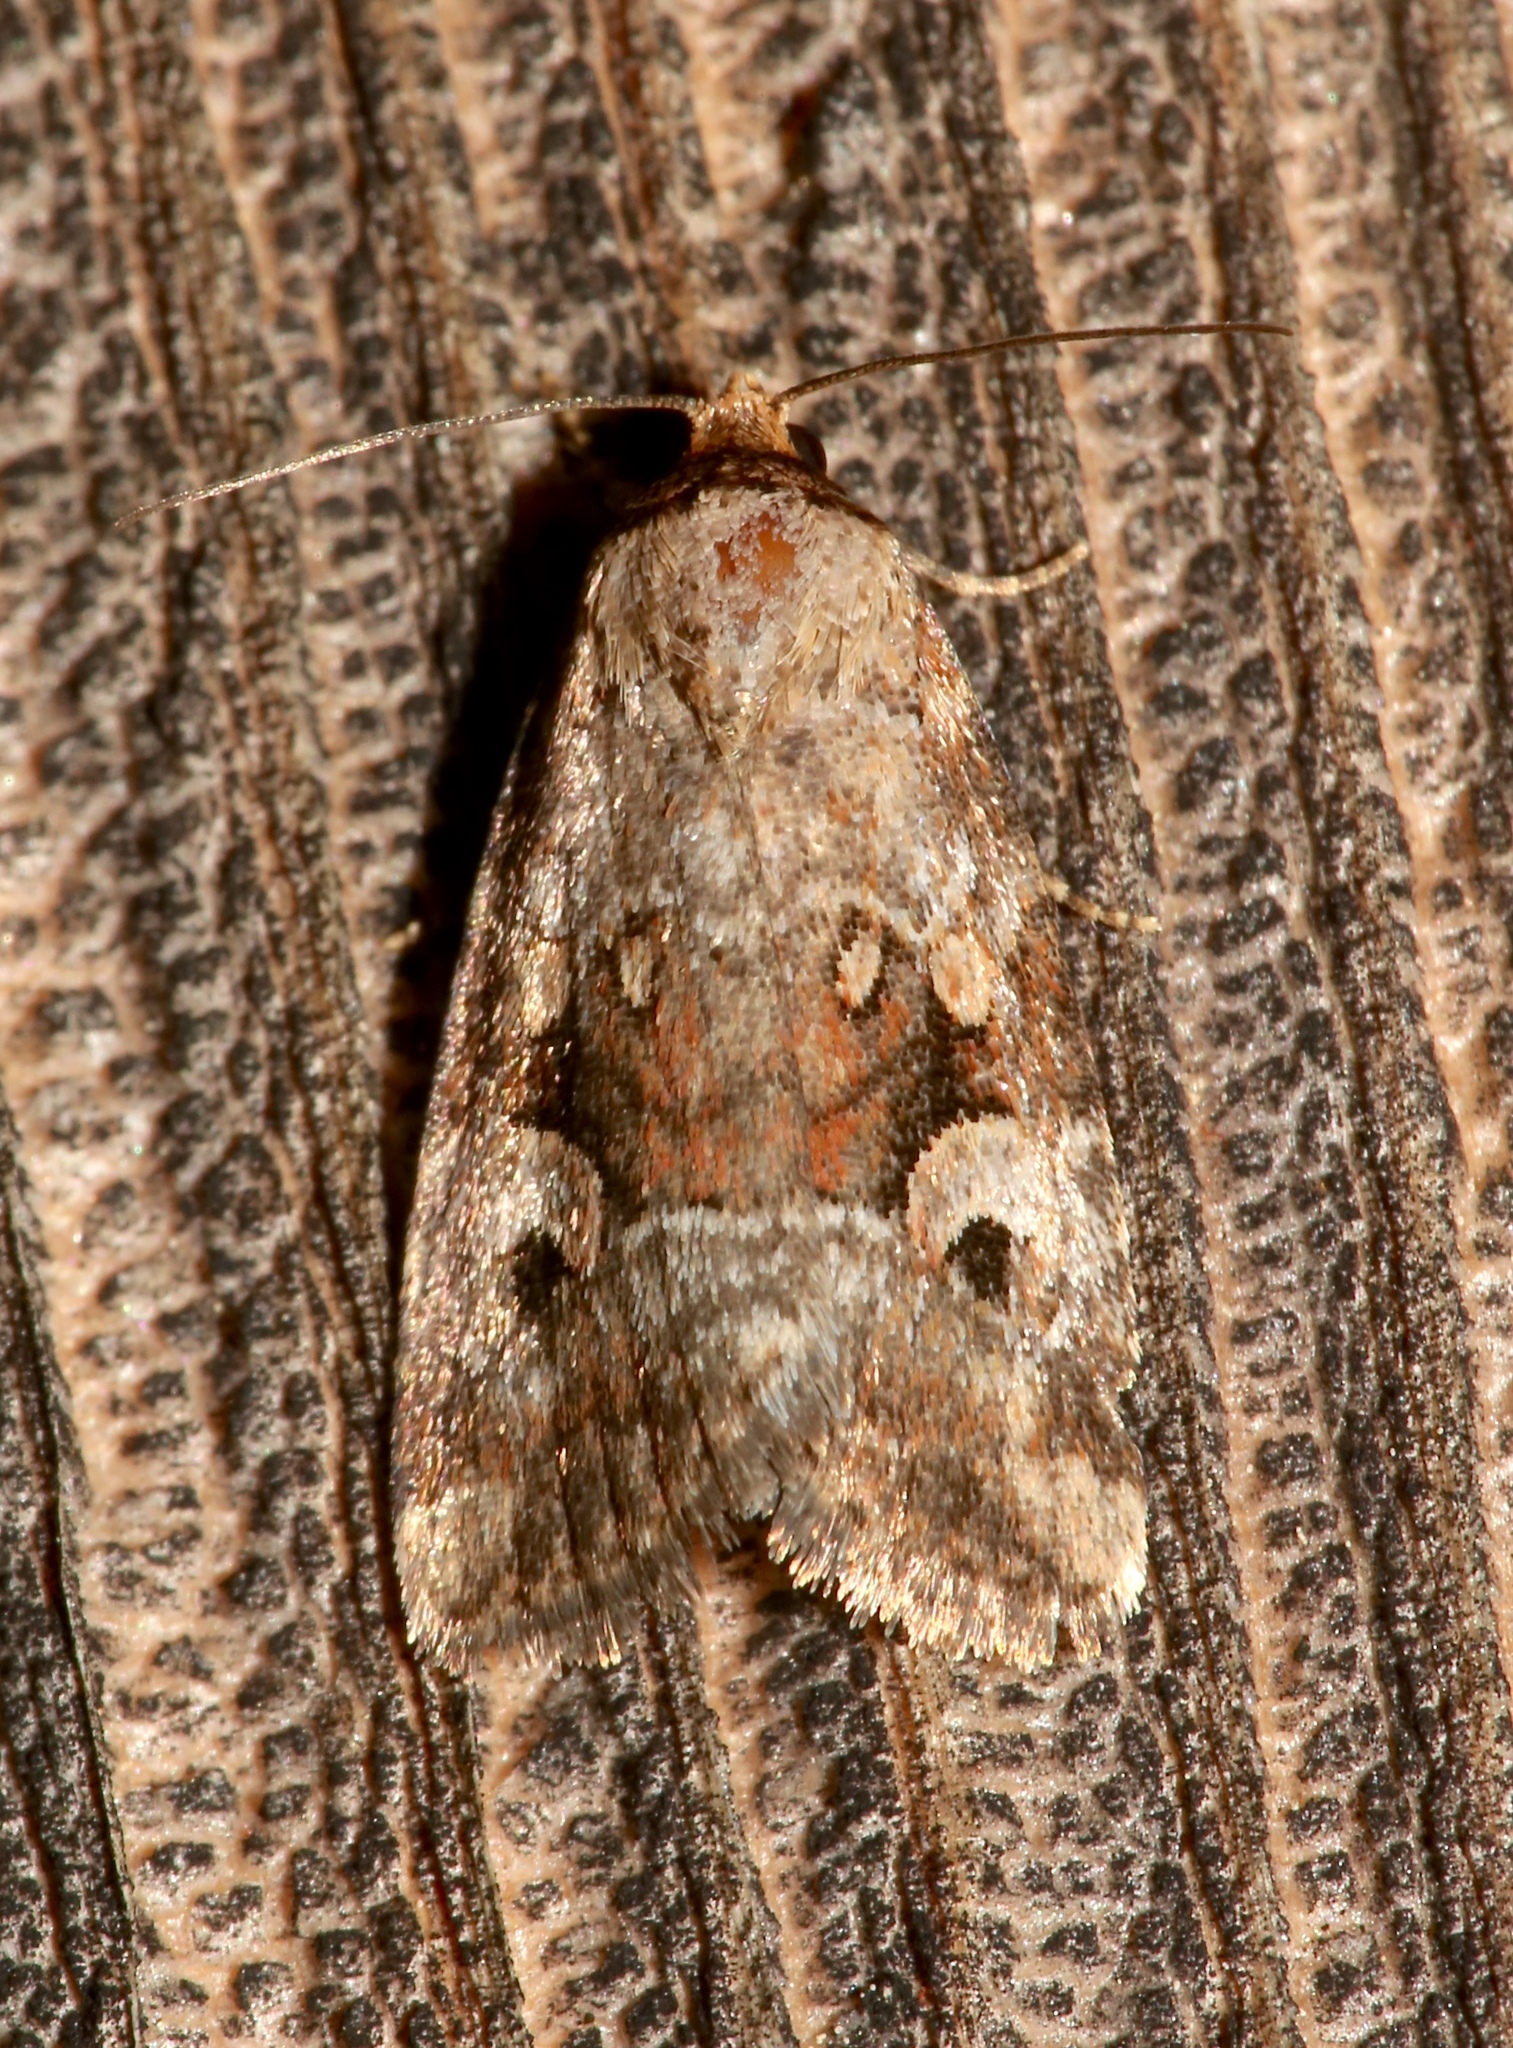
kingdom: Animalia
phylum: Arthropoda
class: Insecta
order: Lepidoptera
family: Noctuidae
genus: Elaphria
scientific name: Elaphria alapallida
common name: Pale-winged midget
